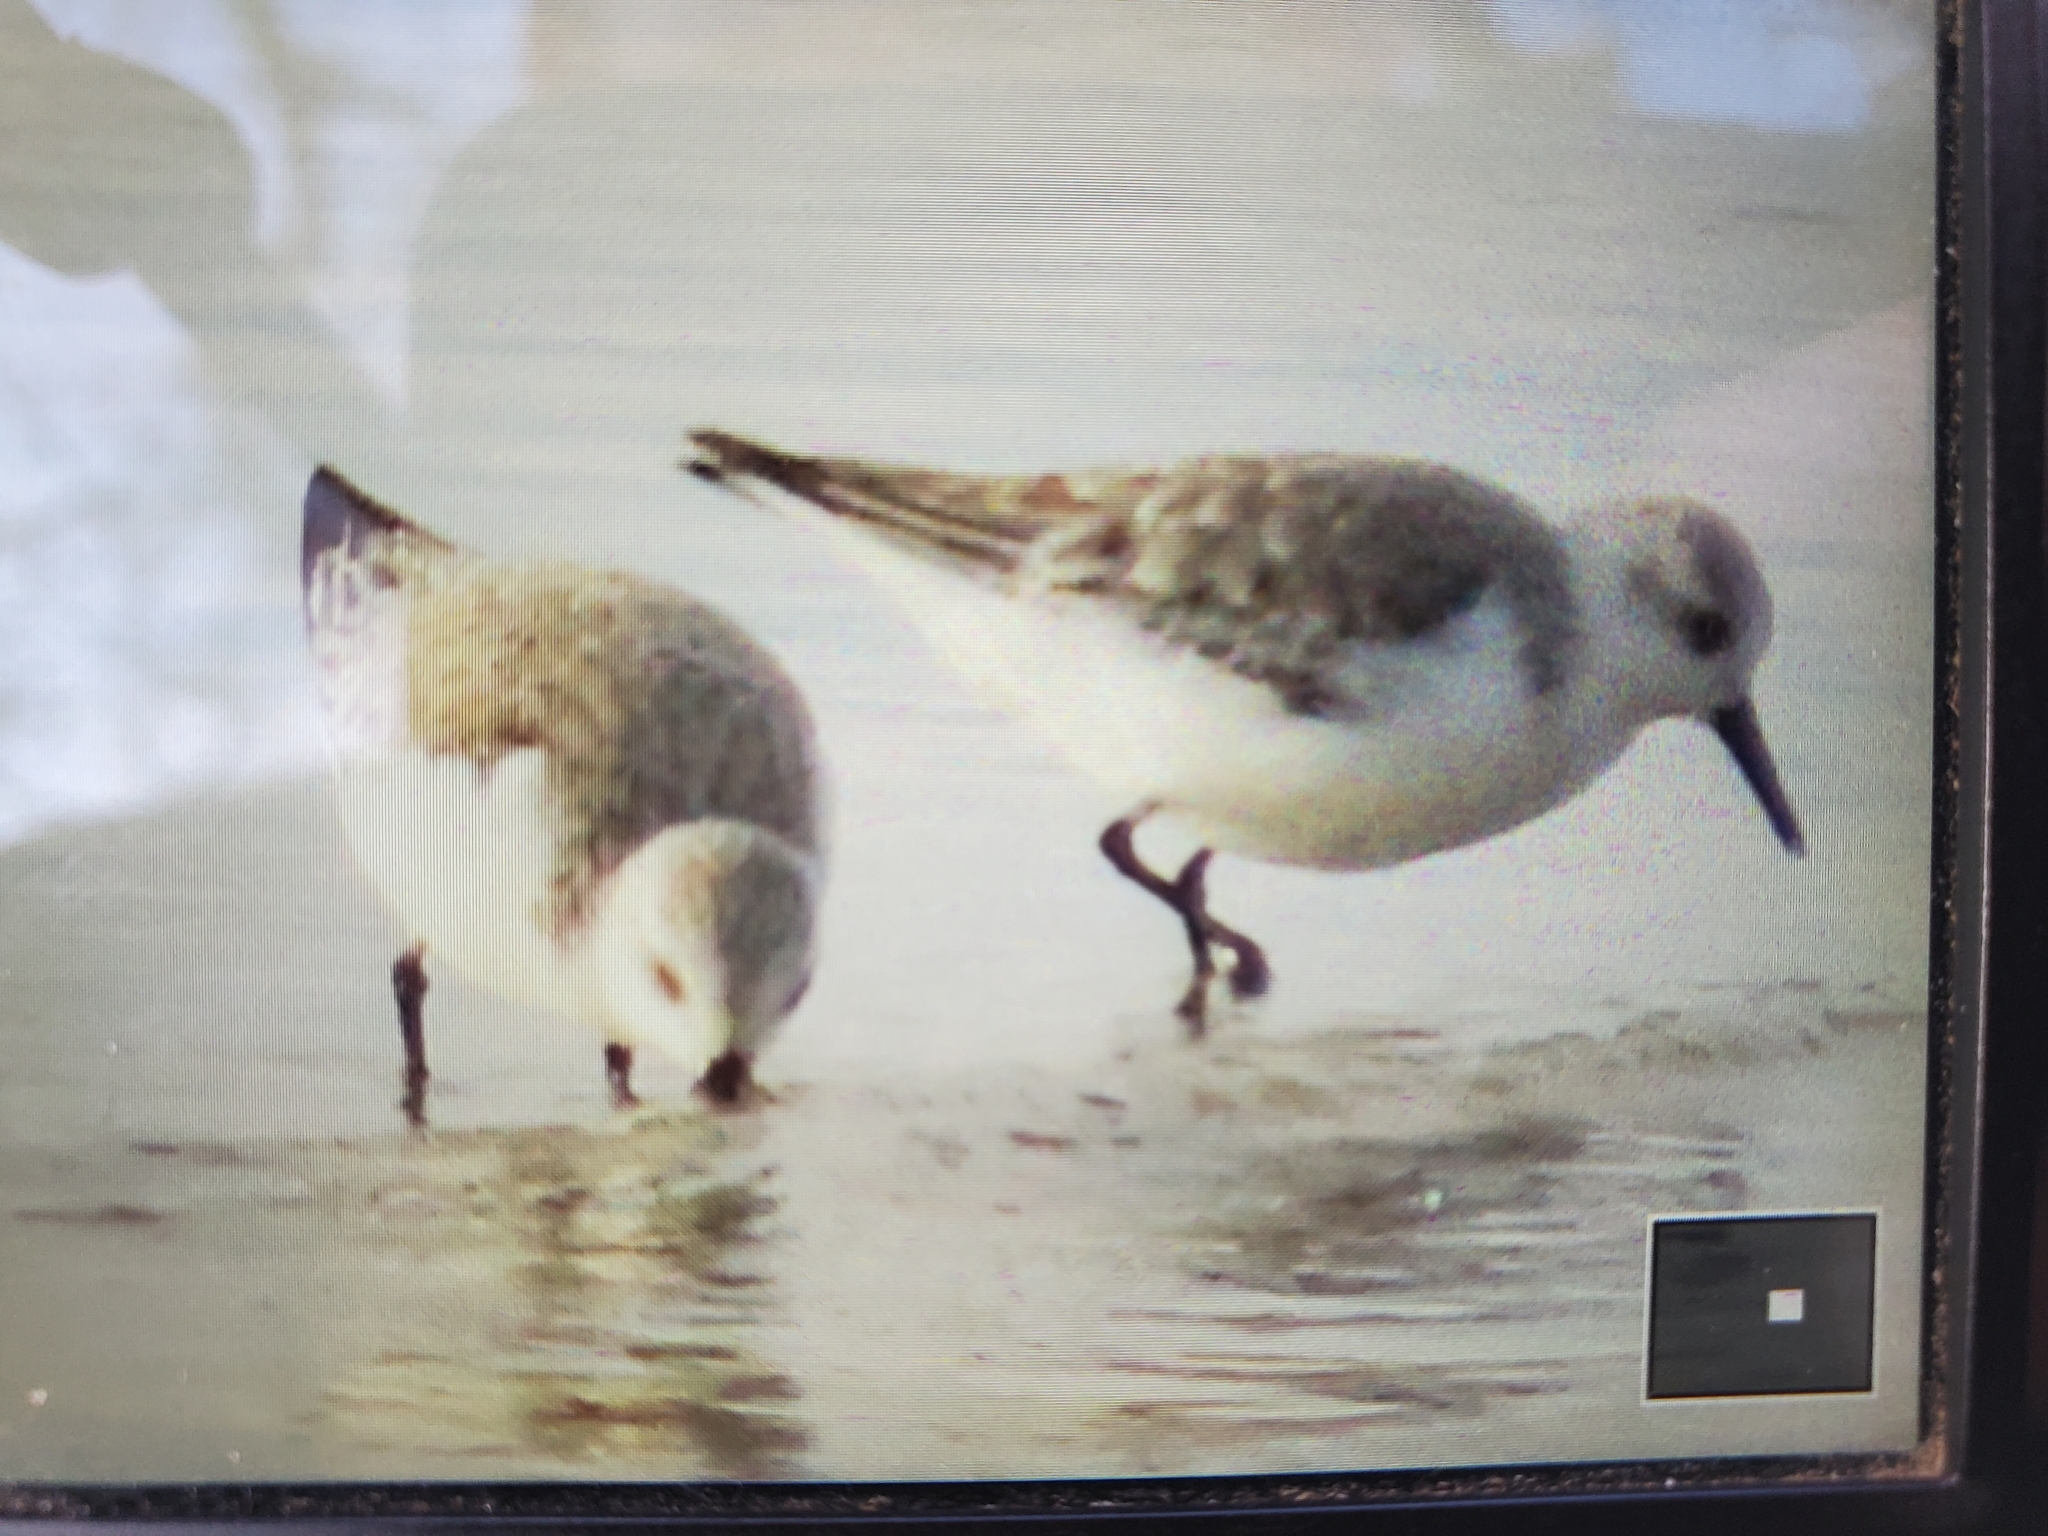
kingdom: Animalia
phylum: Chordata
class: Aves
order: Charadriiformes
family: Scolopacidae
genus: Calidris
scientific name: Calidris alba
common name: Sanderling
